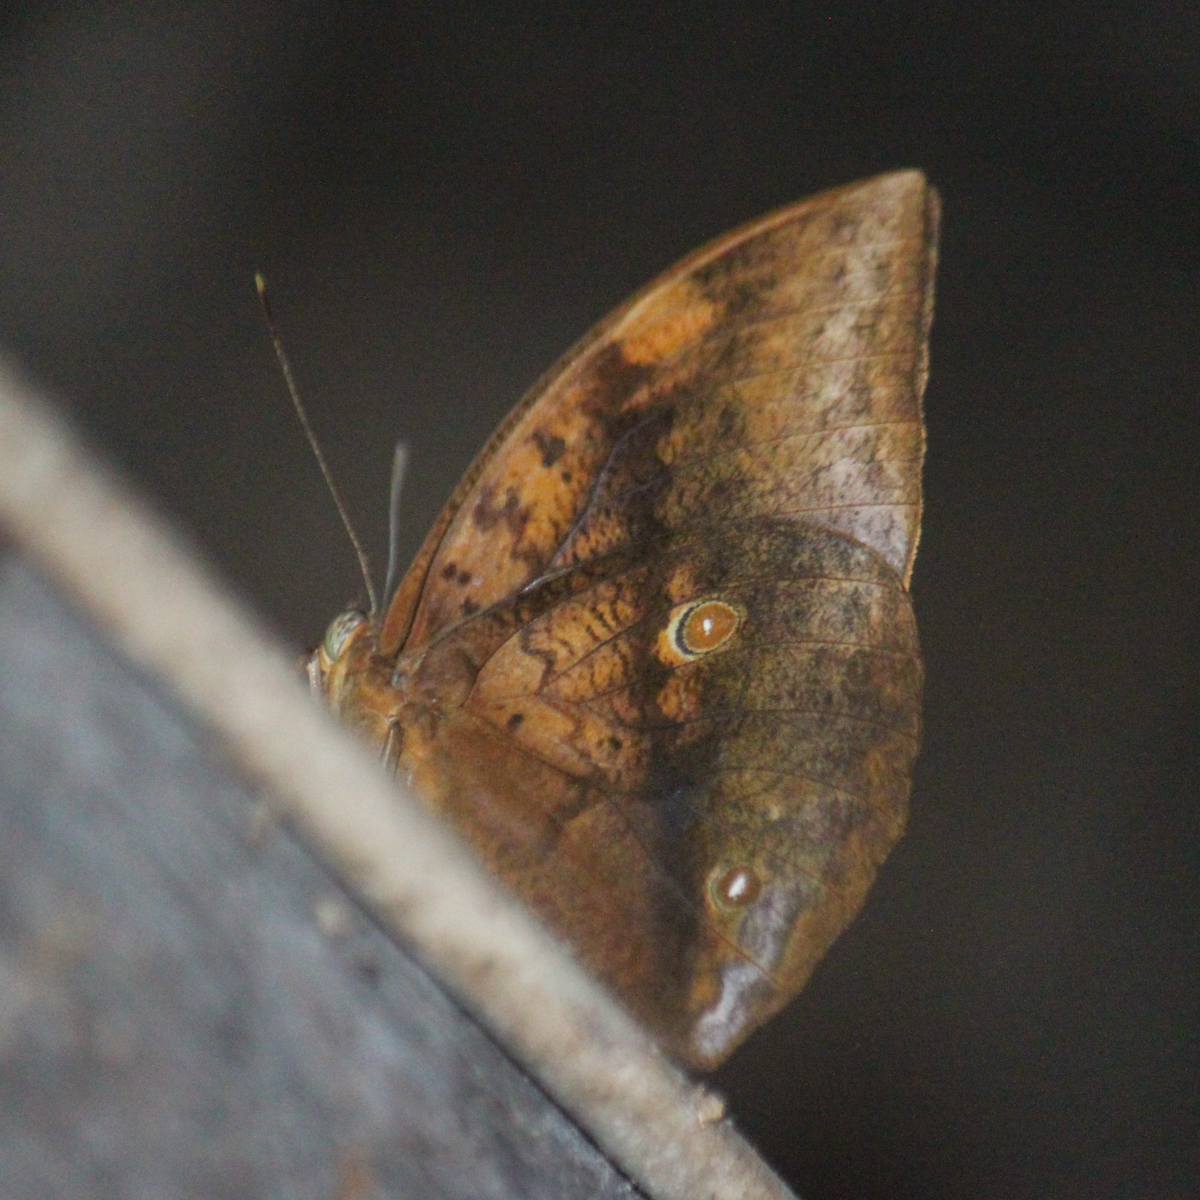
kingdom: Animalia
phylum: Arthropoda
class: Insecta
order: Lepidoptera
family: Nymphalidae
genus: Discophora
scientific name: Discophora timora
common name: Great duffer
